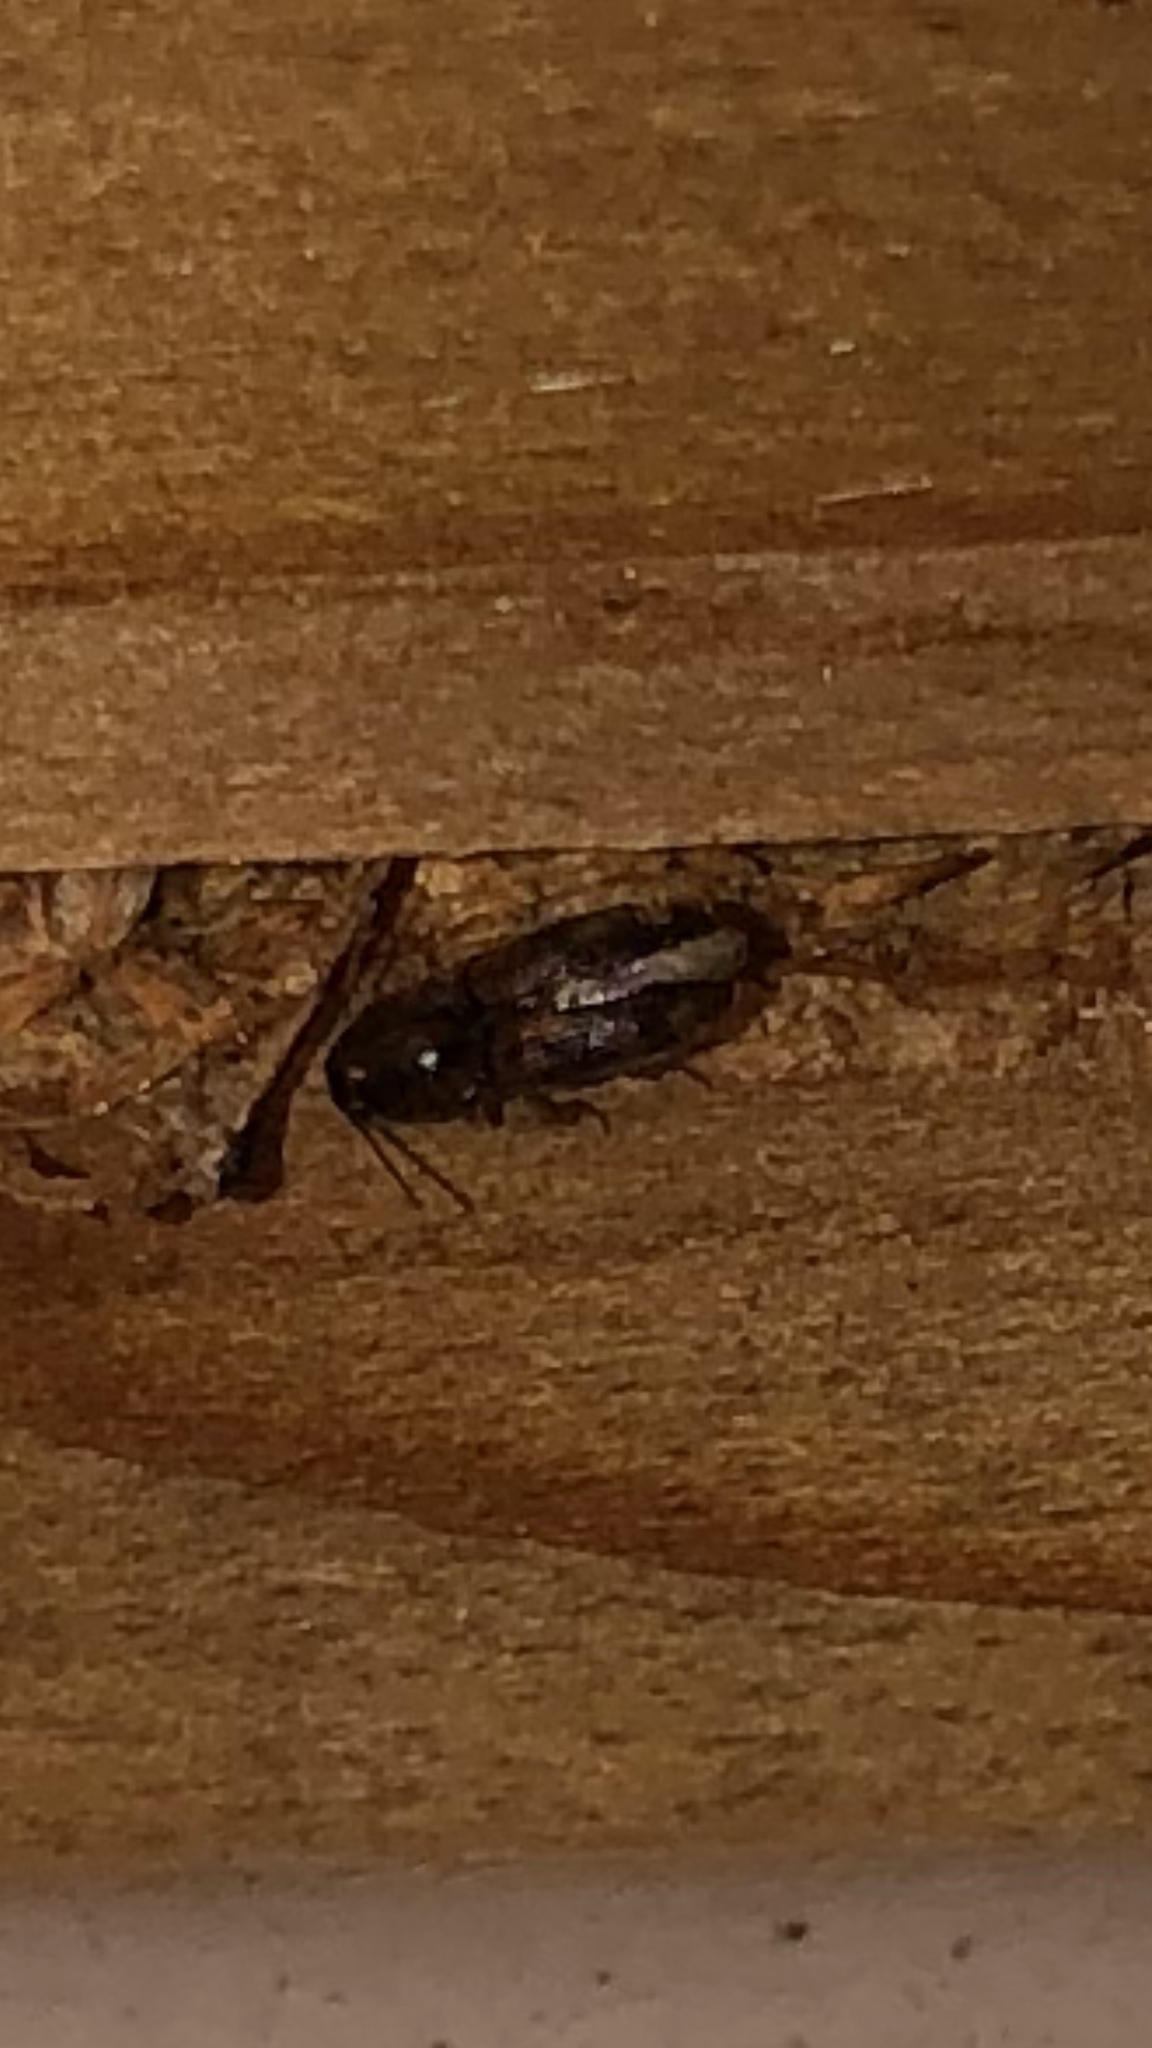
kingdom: Animalia
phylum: Arthropoda
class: Insecta
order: Coleoptera
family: Elateridae
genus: Monocrepidius
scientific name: Monocrepidius bellus
